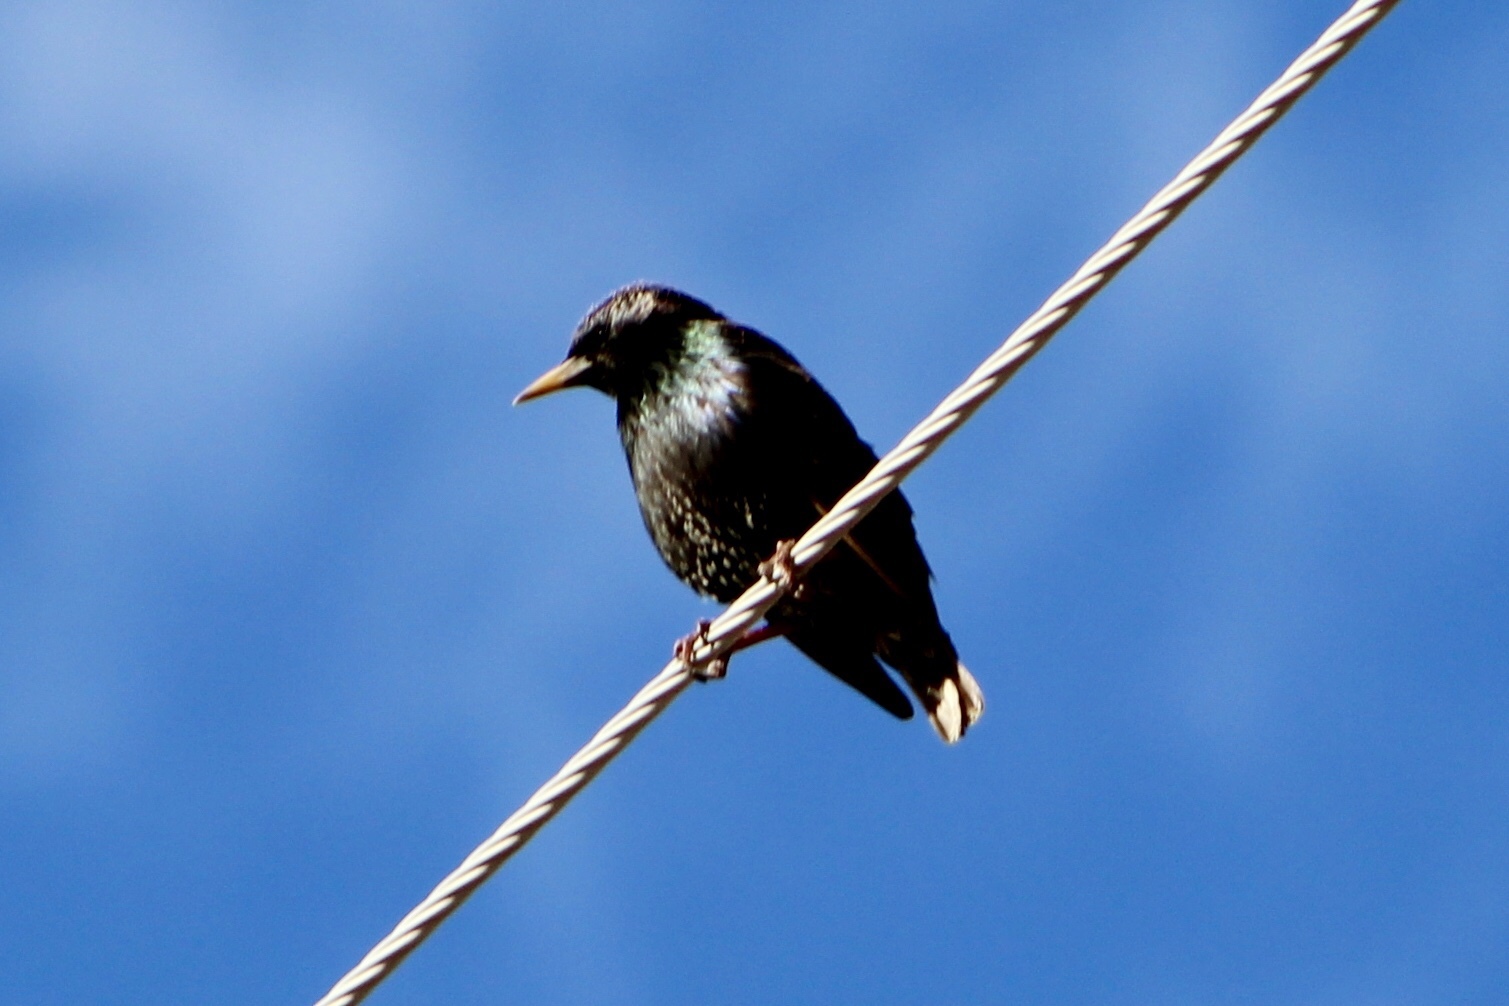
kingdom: Animalia
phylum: Chordata
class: Aves
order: Passeriformes
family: Sturnidae
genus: Sturnus
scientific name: Sturnus vulgaris
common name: Common starling
